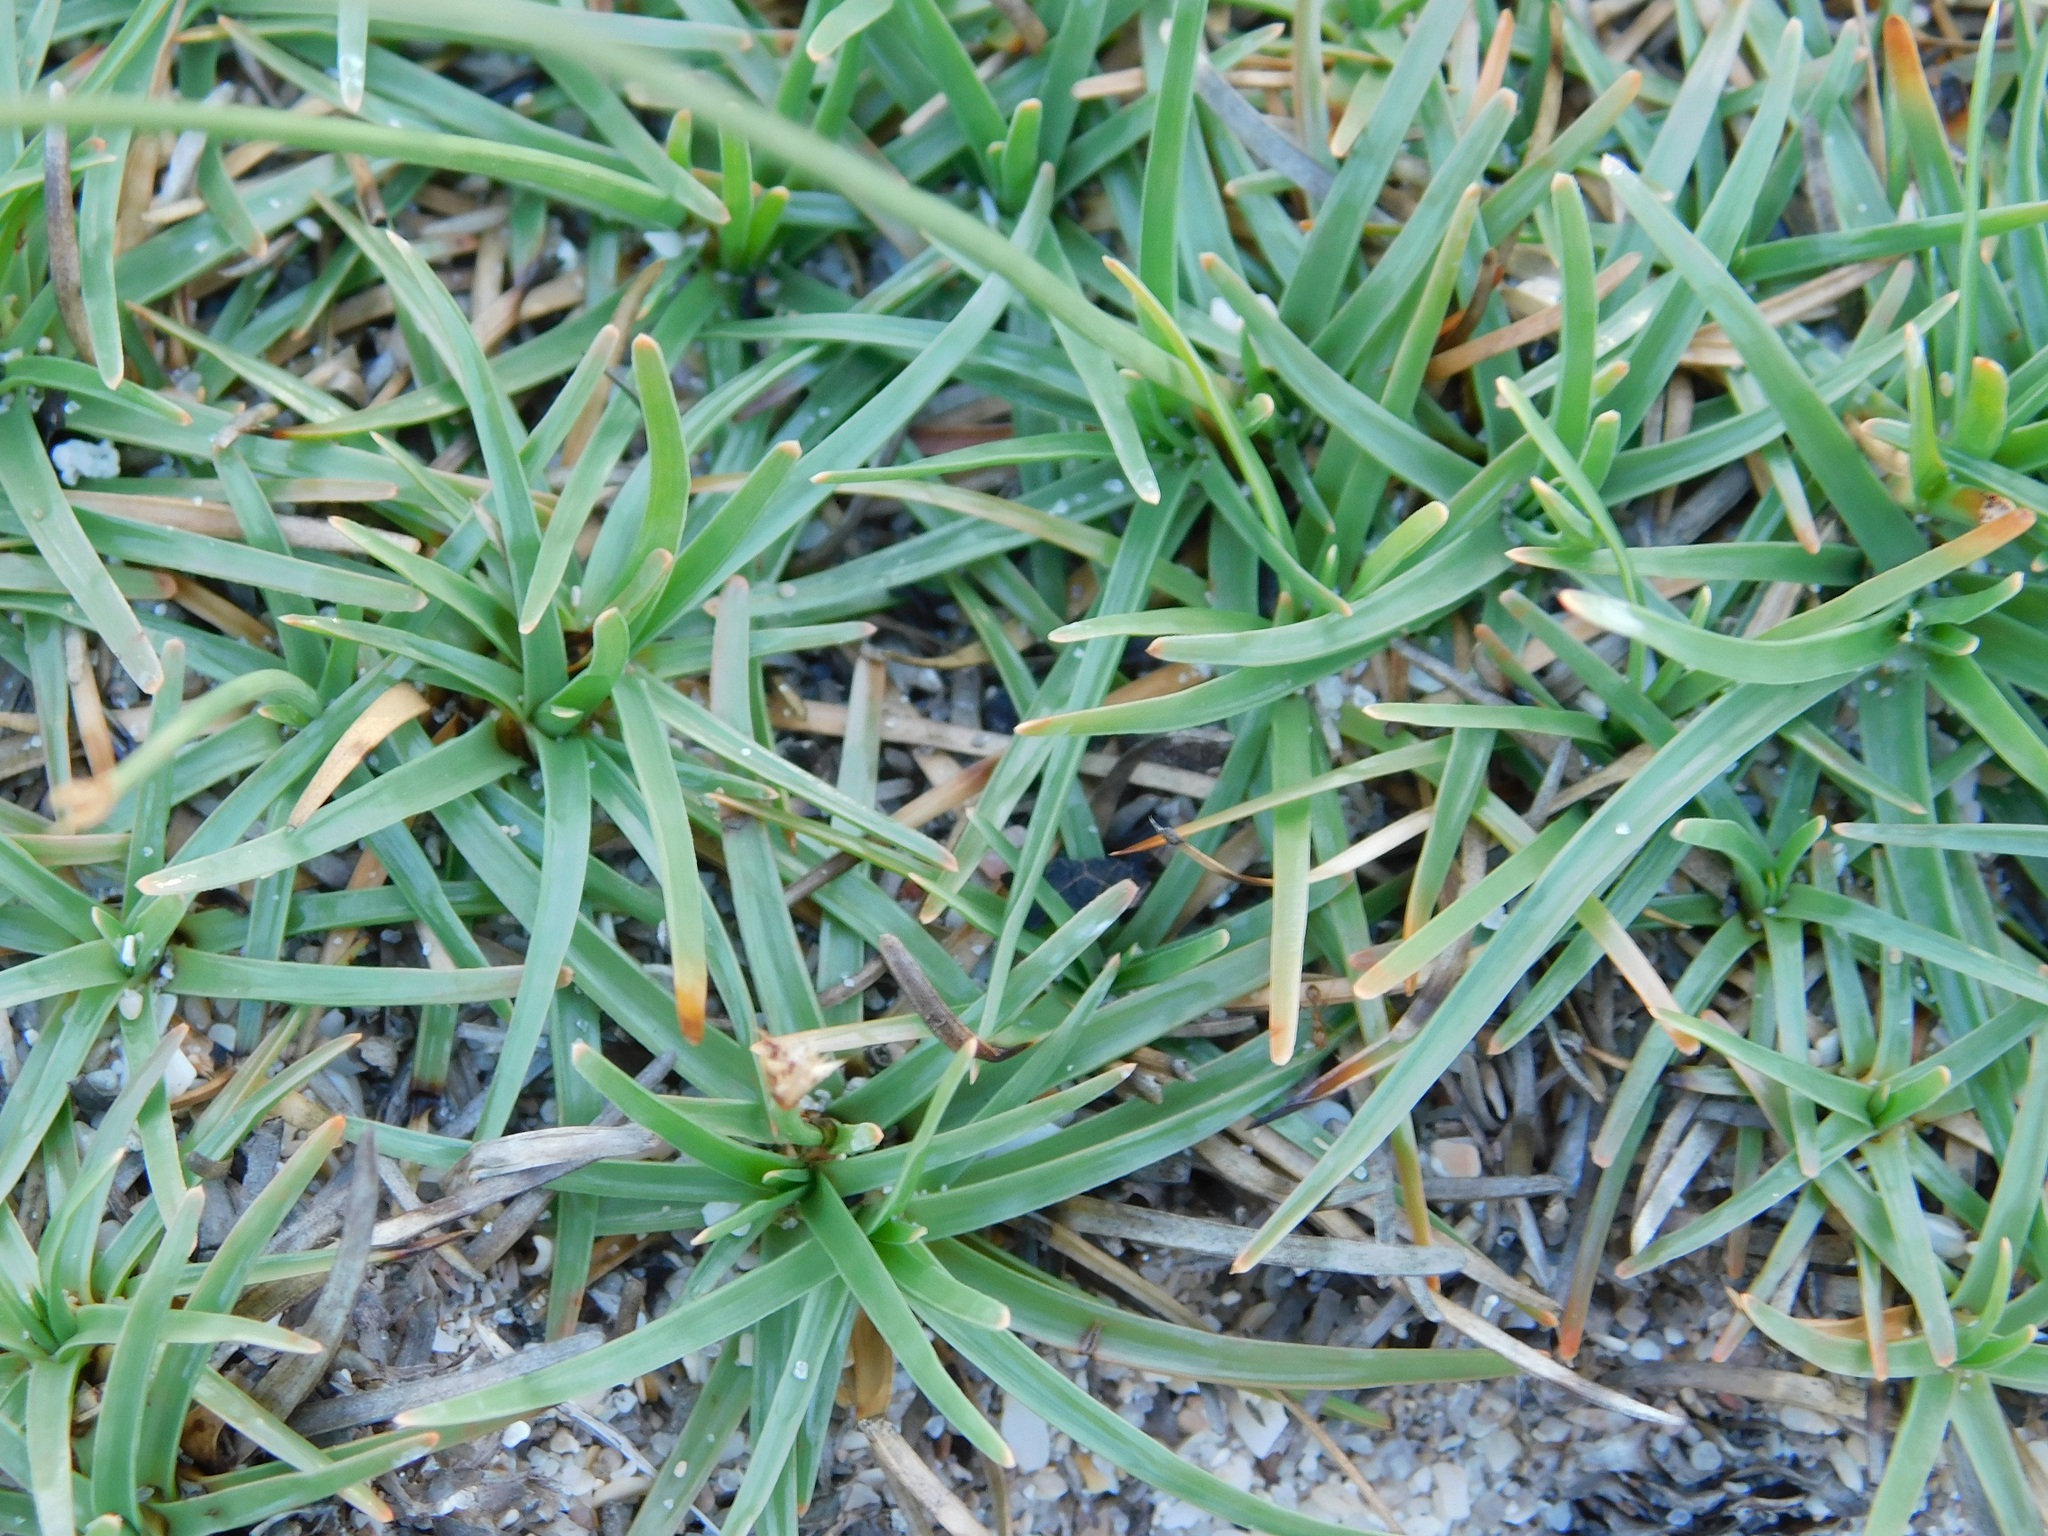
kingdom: Plantae
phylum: Tracheophyta
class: Liliopsida
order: Poales
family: Cyperaceae
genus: Fimbristylis
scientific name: Fimbristylis cymosa
